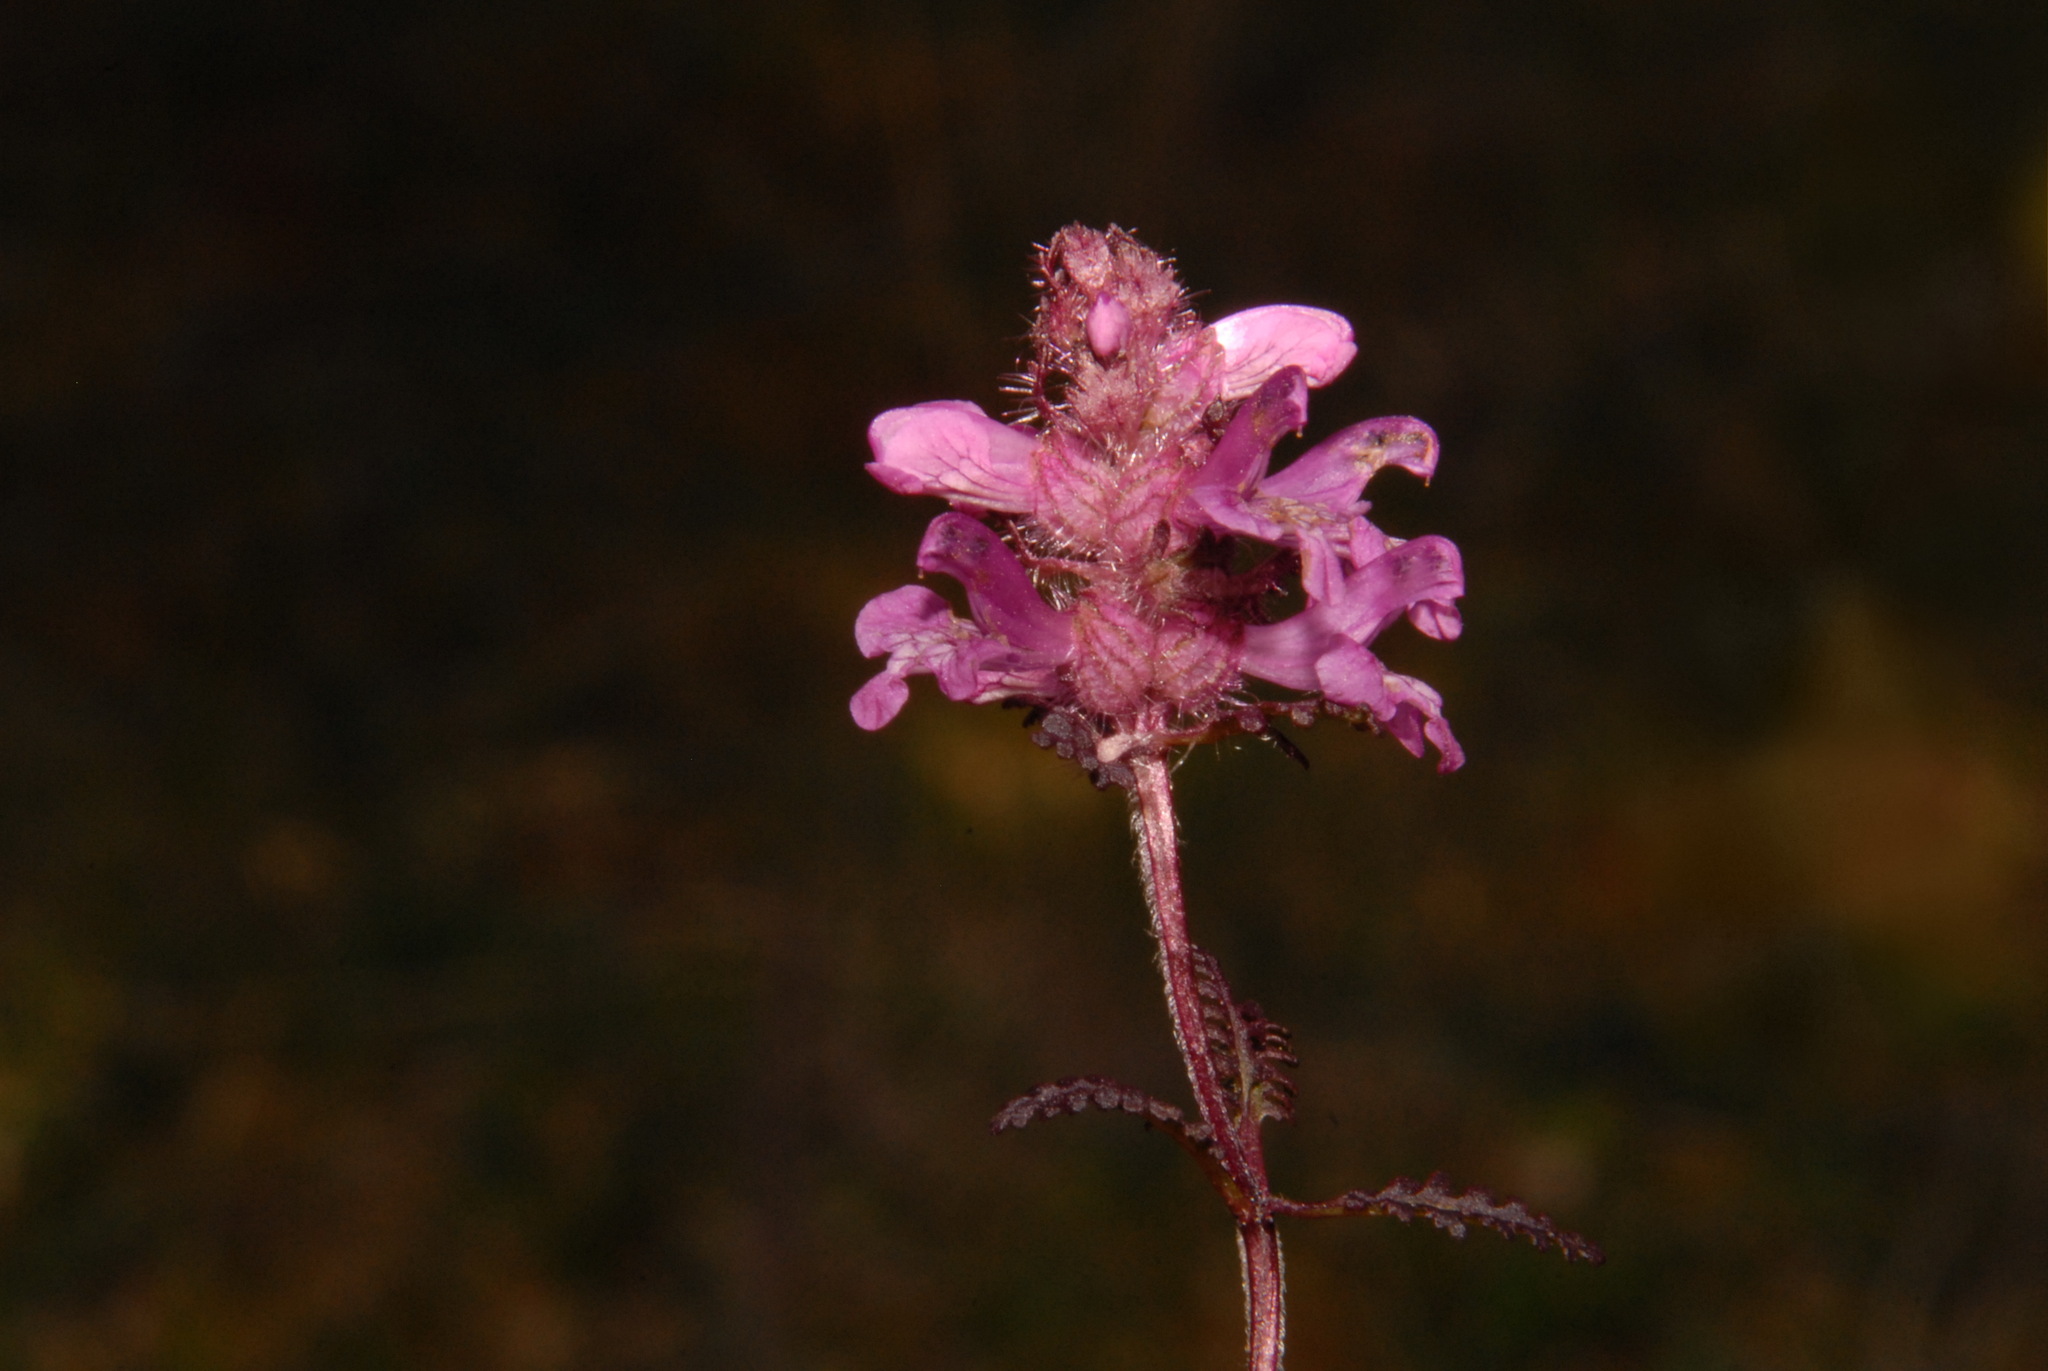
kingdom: Plantae
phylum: Tracheophyta
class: Magnoliopsida
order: Lamiales
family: Orobanchaceae
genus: Pedicularis
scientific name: Pedicularis verticillata
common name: Whorled lousewort
